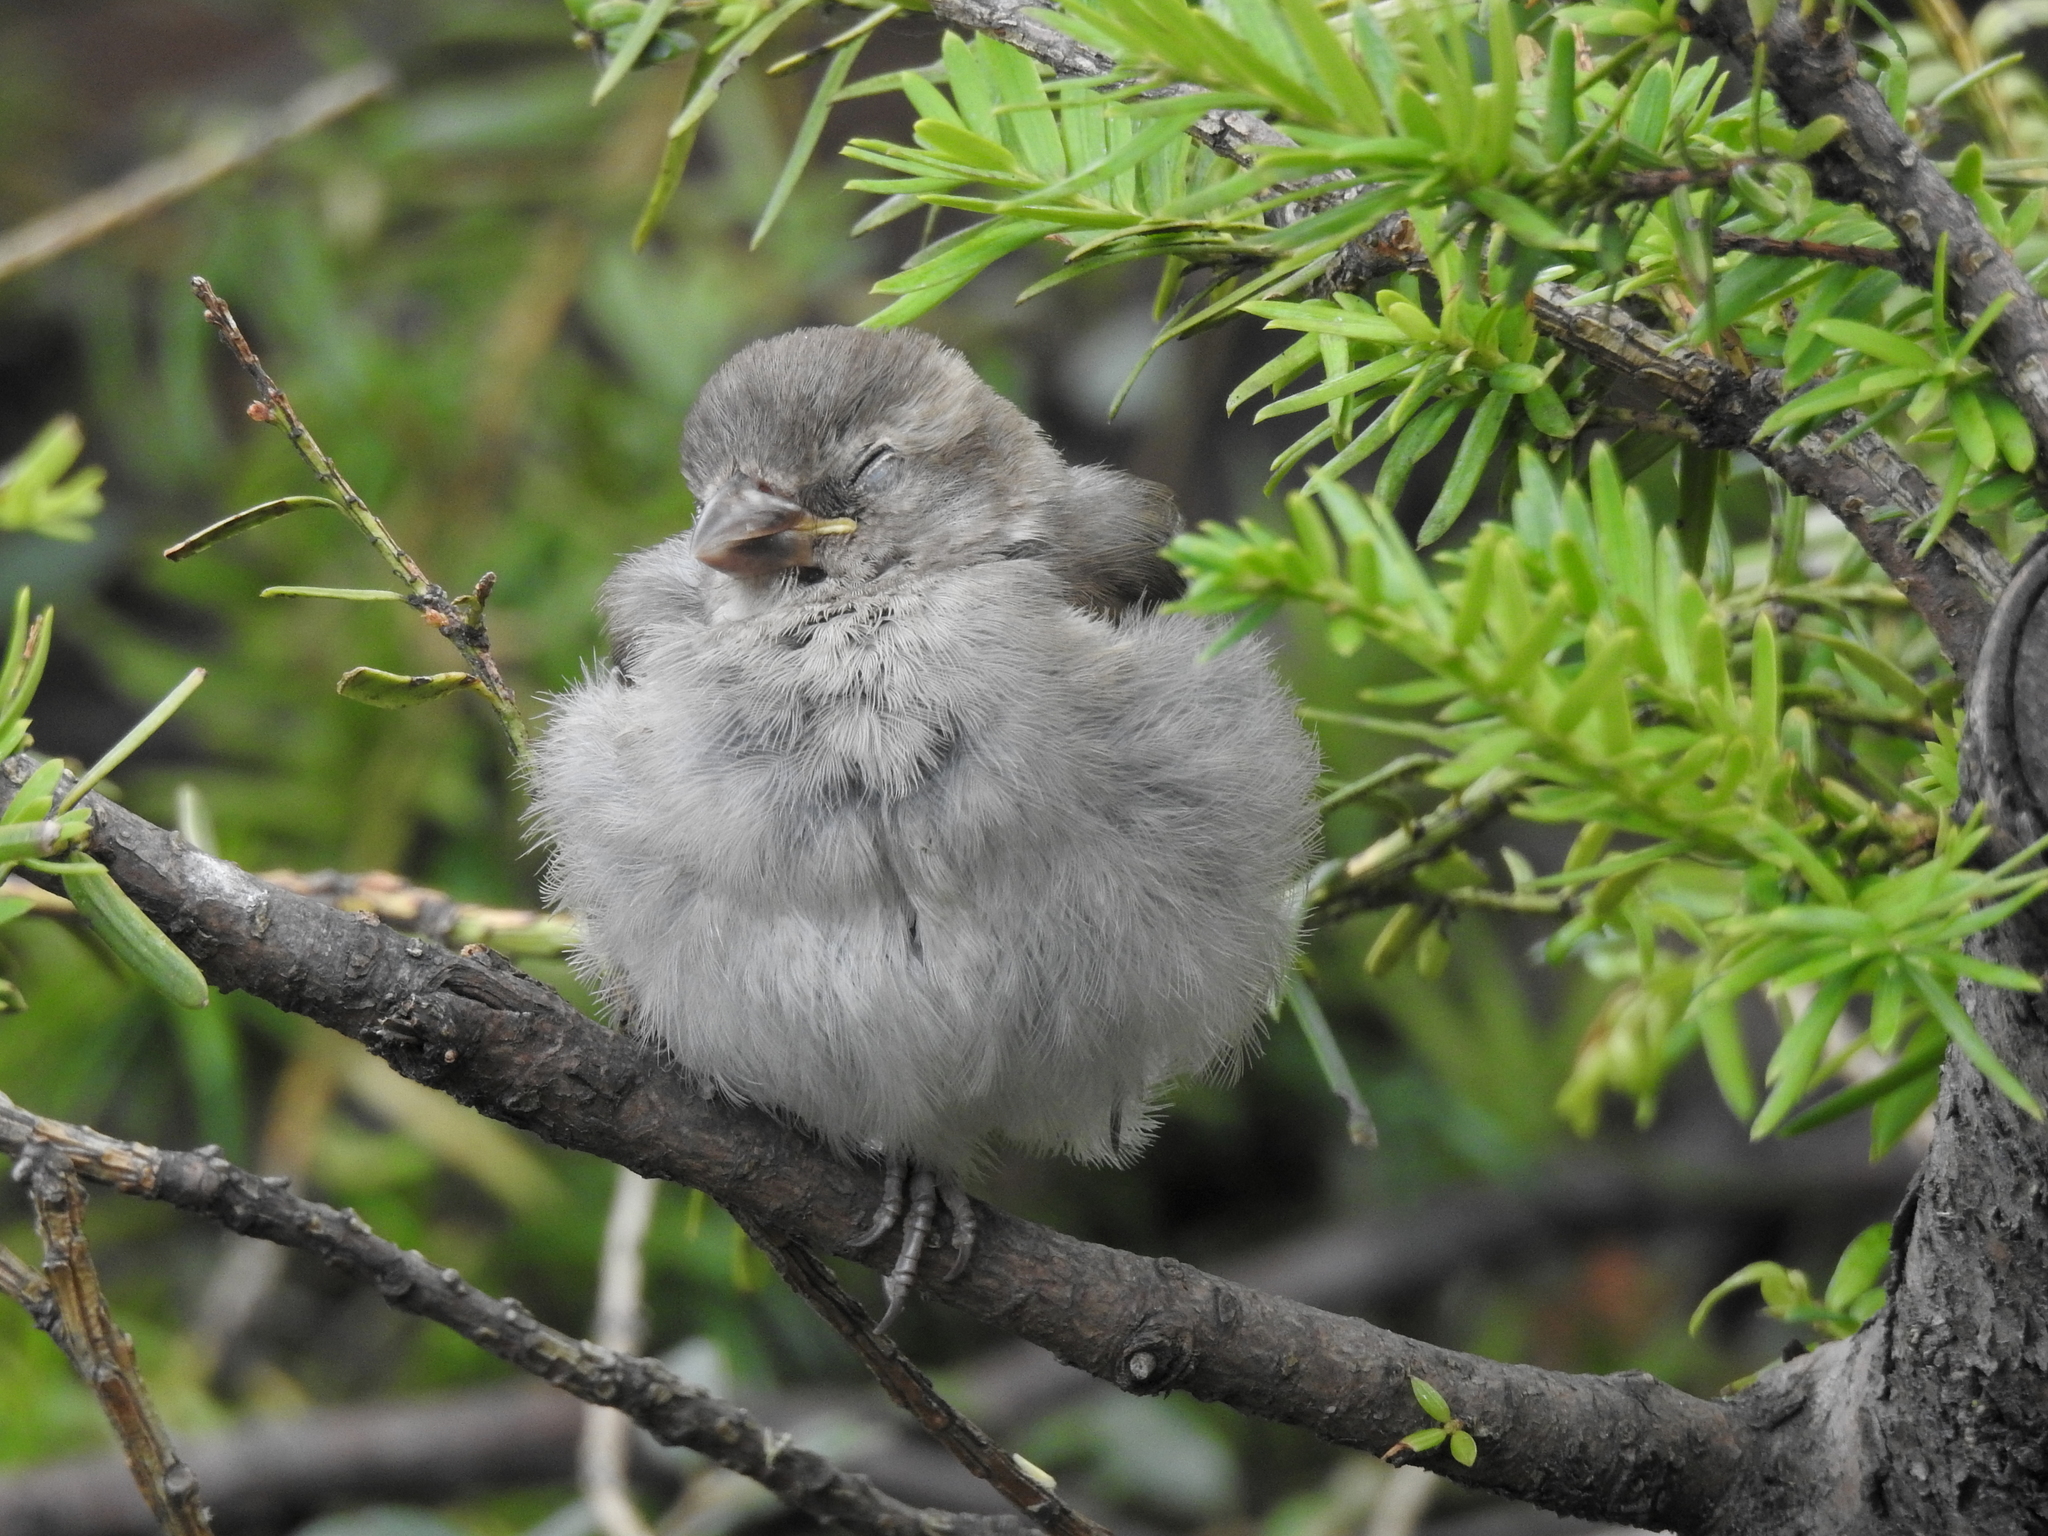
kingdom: Animalia
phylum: Chordata
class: Aves
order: Passeriformes
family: Passeridae
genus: Passer
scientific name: Passer domesticus
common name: House sparrow
